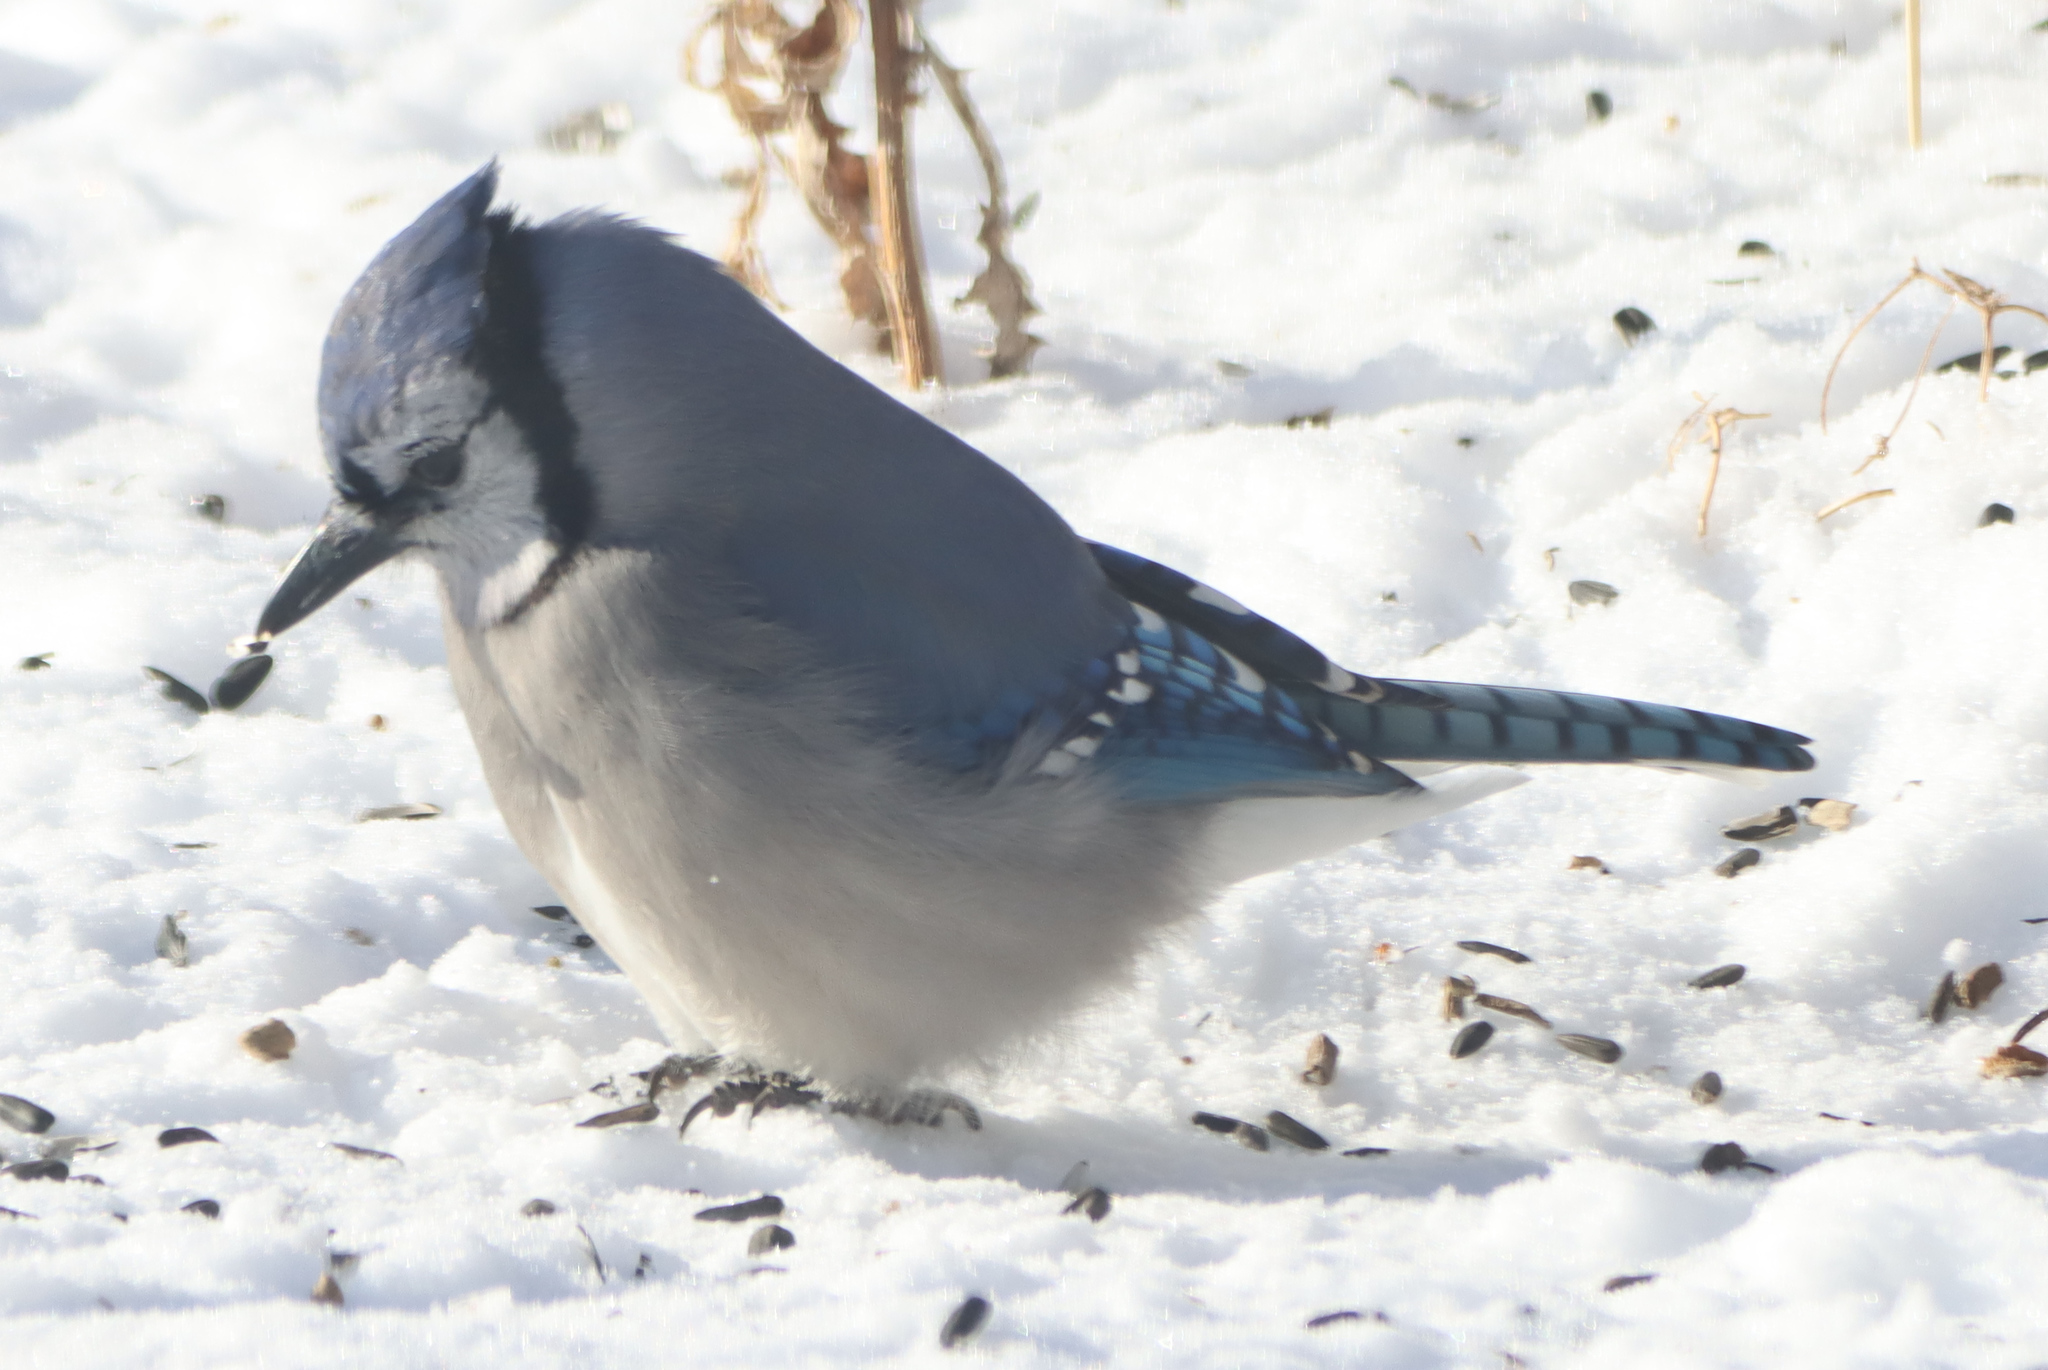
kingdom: Animalia
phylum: Chordata
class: Aves
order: Passeriformes
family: Corvidae
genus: Cyanocitta
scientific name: Cyanocitta cristata
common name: Blue jay
